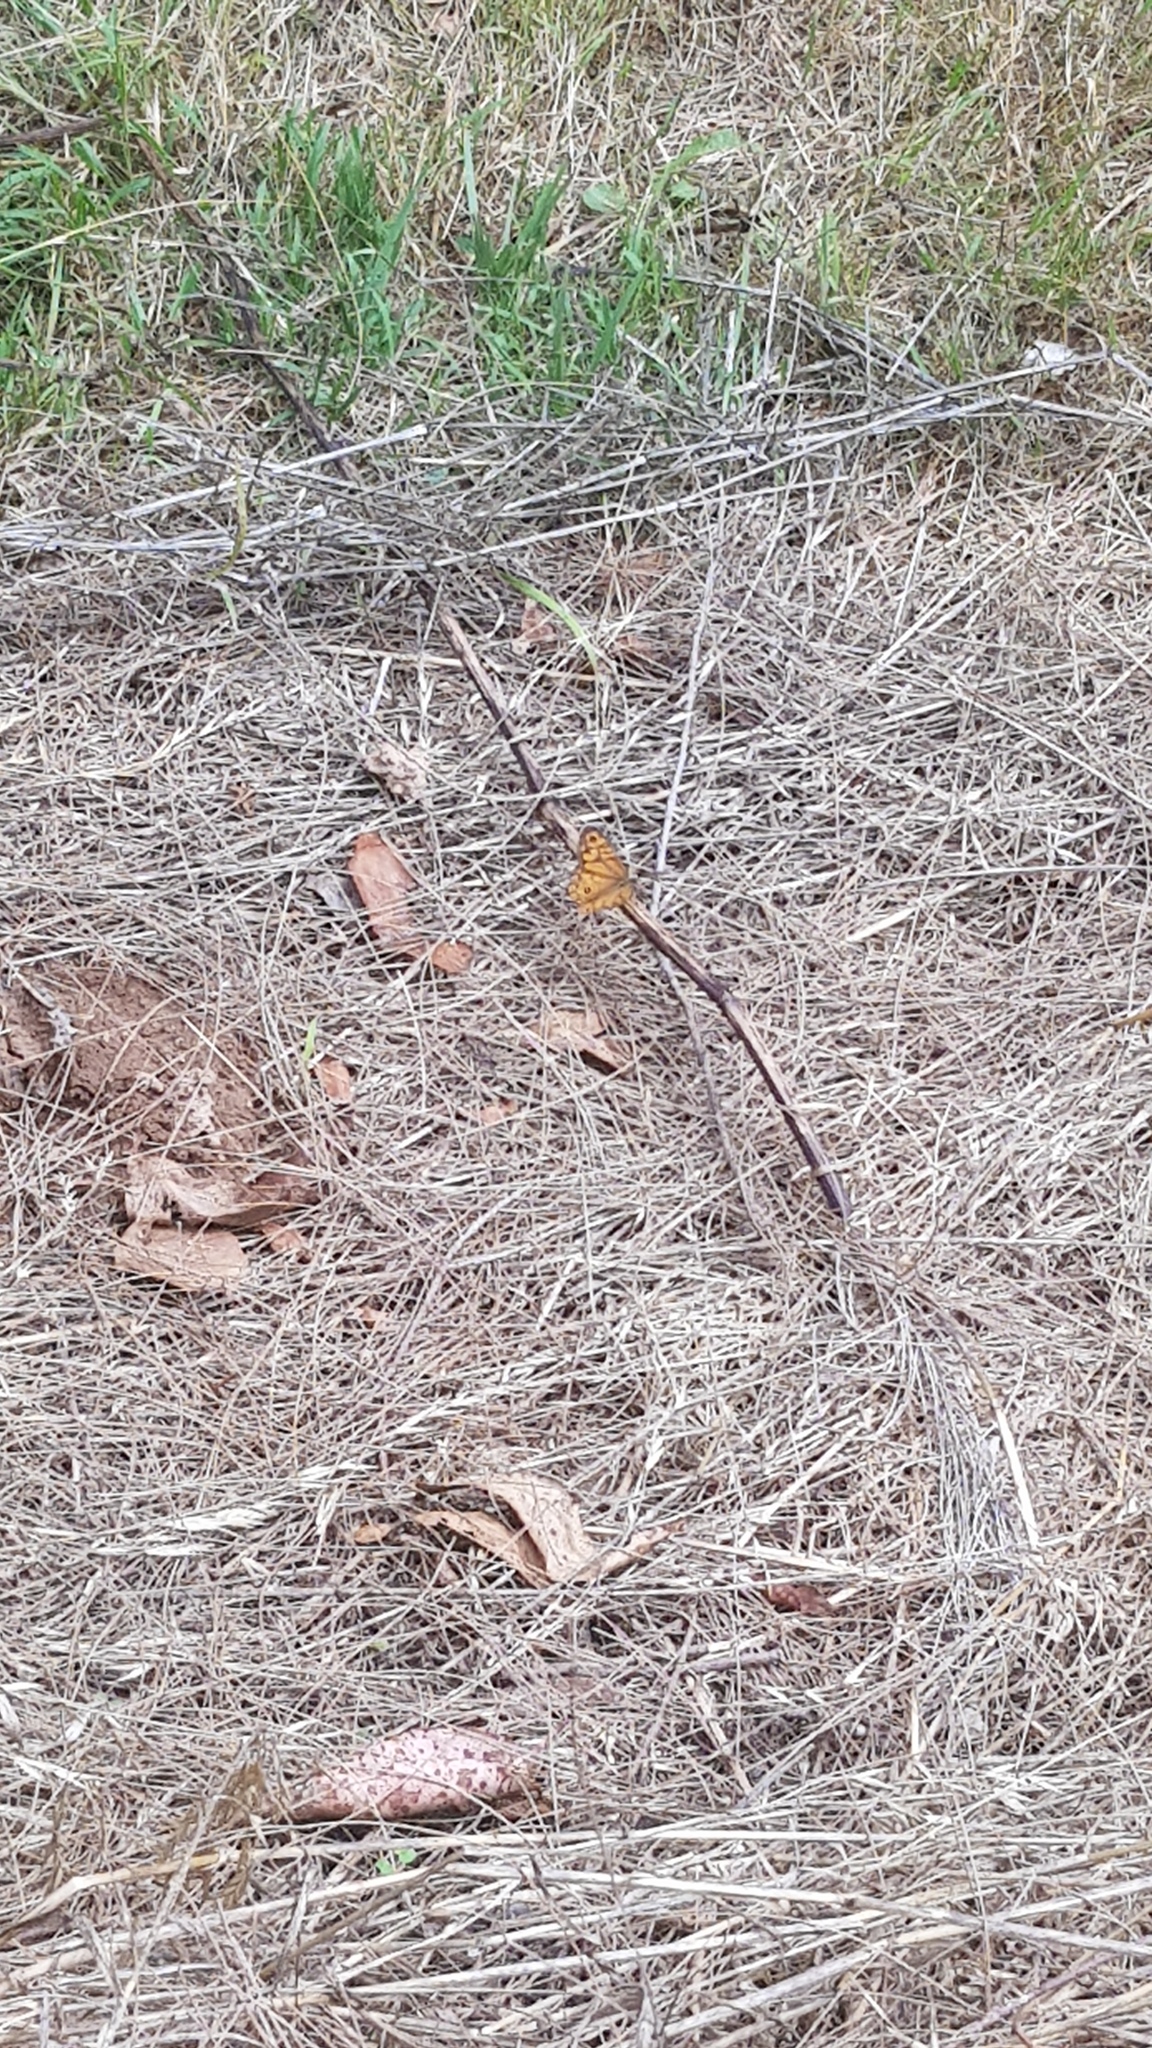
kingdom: Animalia
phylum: Arthropoda
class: Insecta
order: Lepidoptera
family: Nymphalidae
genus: Geitoneura
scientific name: Geitoneura acantha
